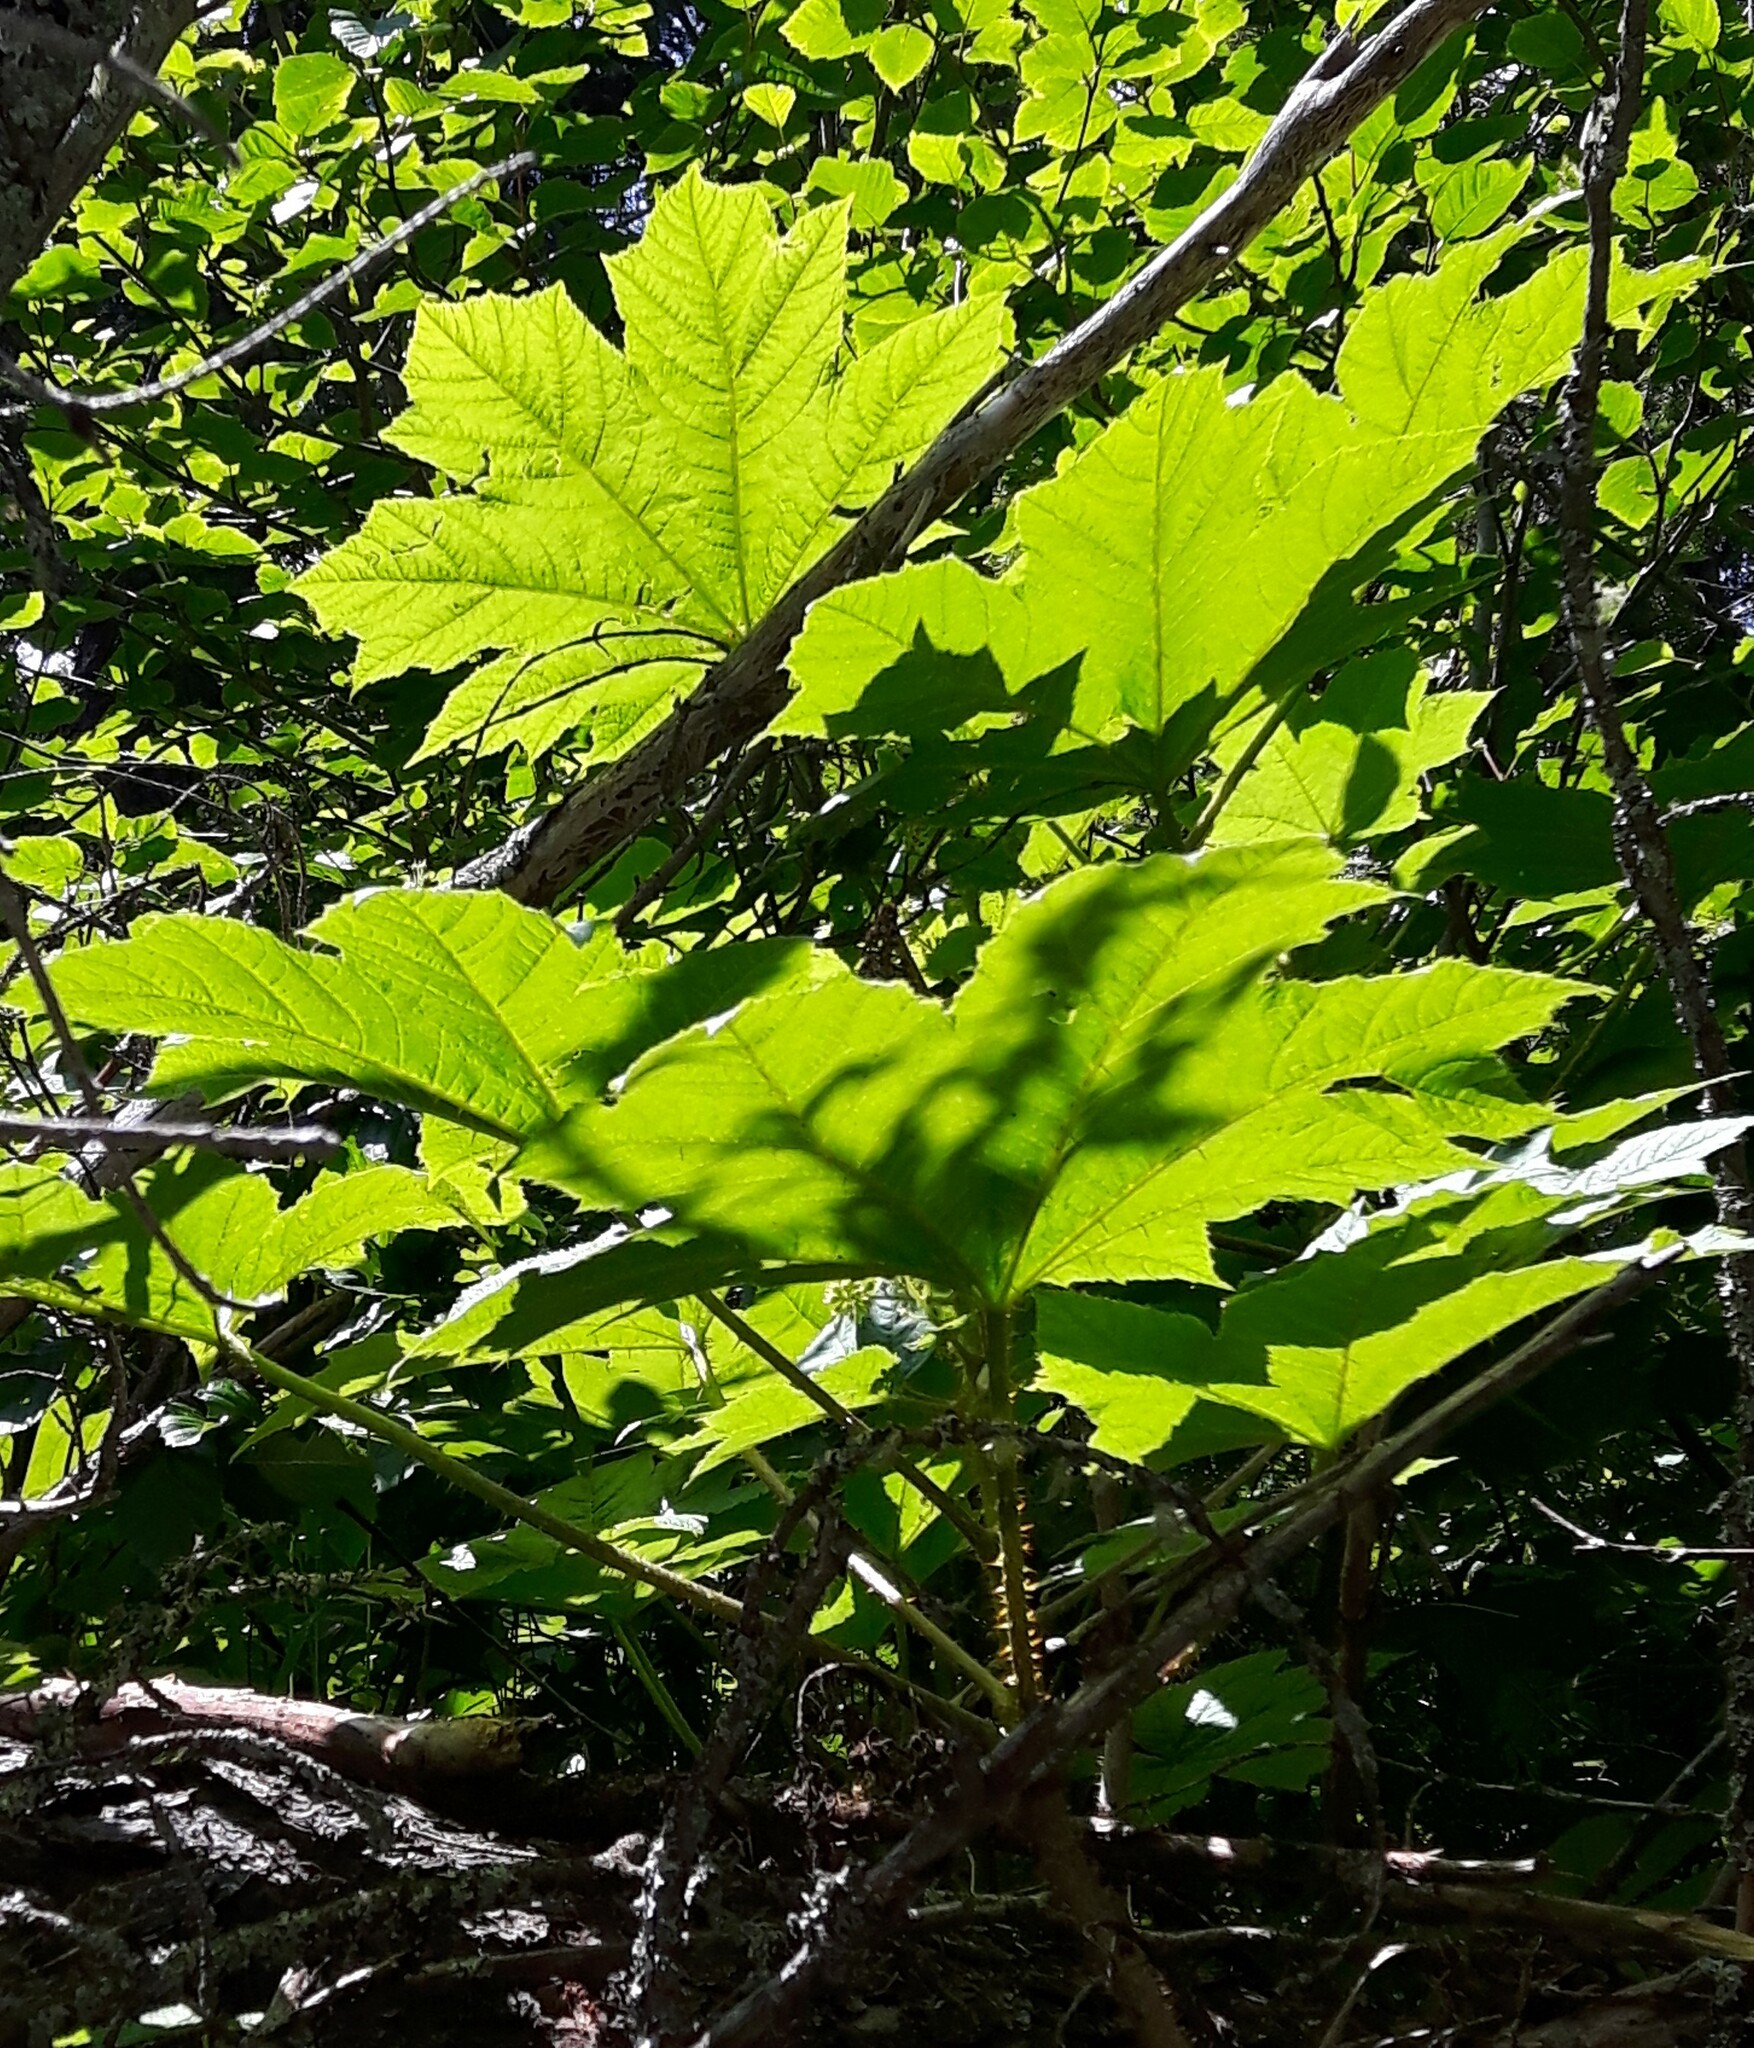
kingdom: Plantae
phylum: Tracheophyta
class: Magnoliopsida
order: Apiales
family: Araliaceae
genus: Oplopanax
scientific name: Oplopanax horridus
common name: Devil's walking-stick
